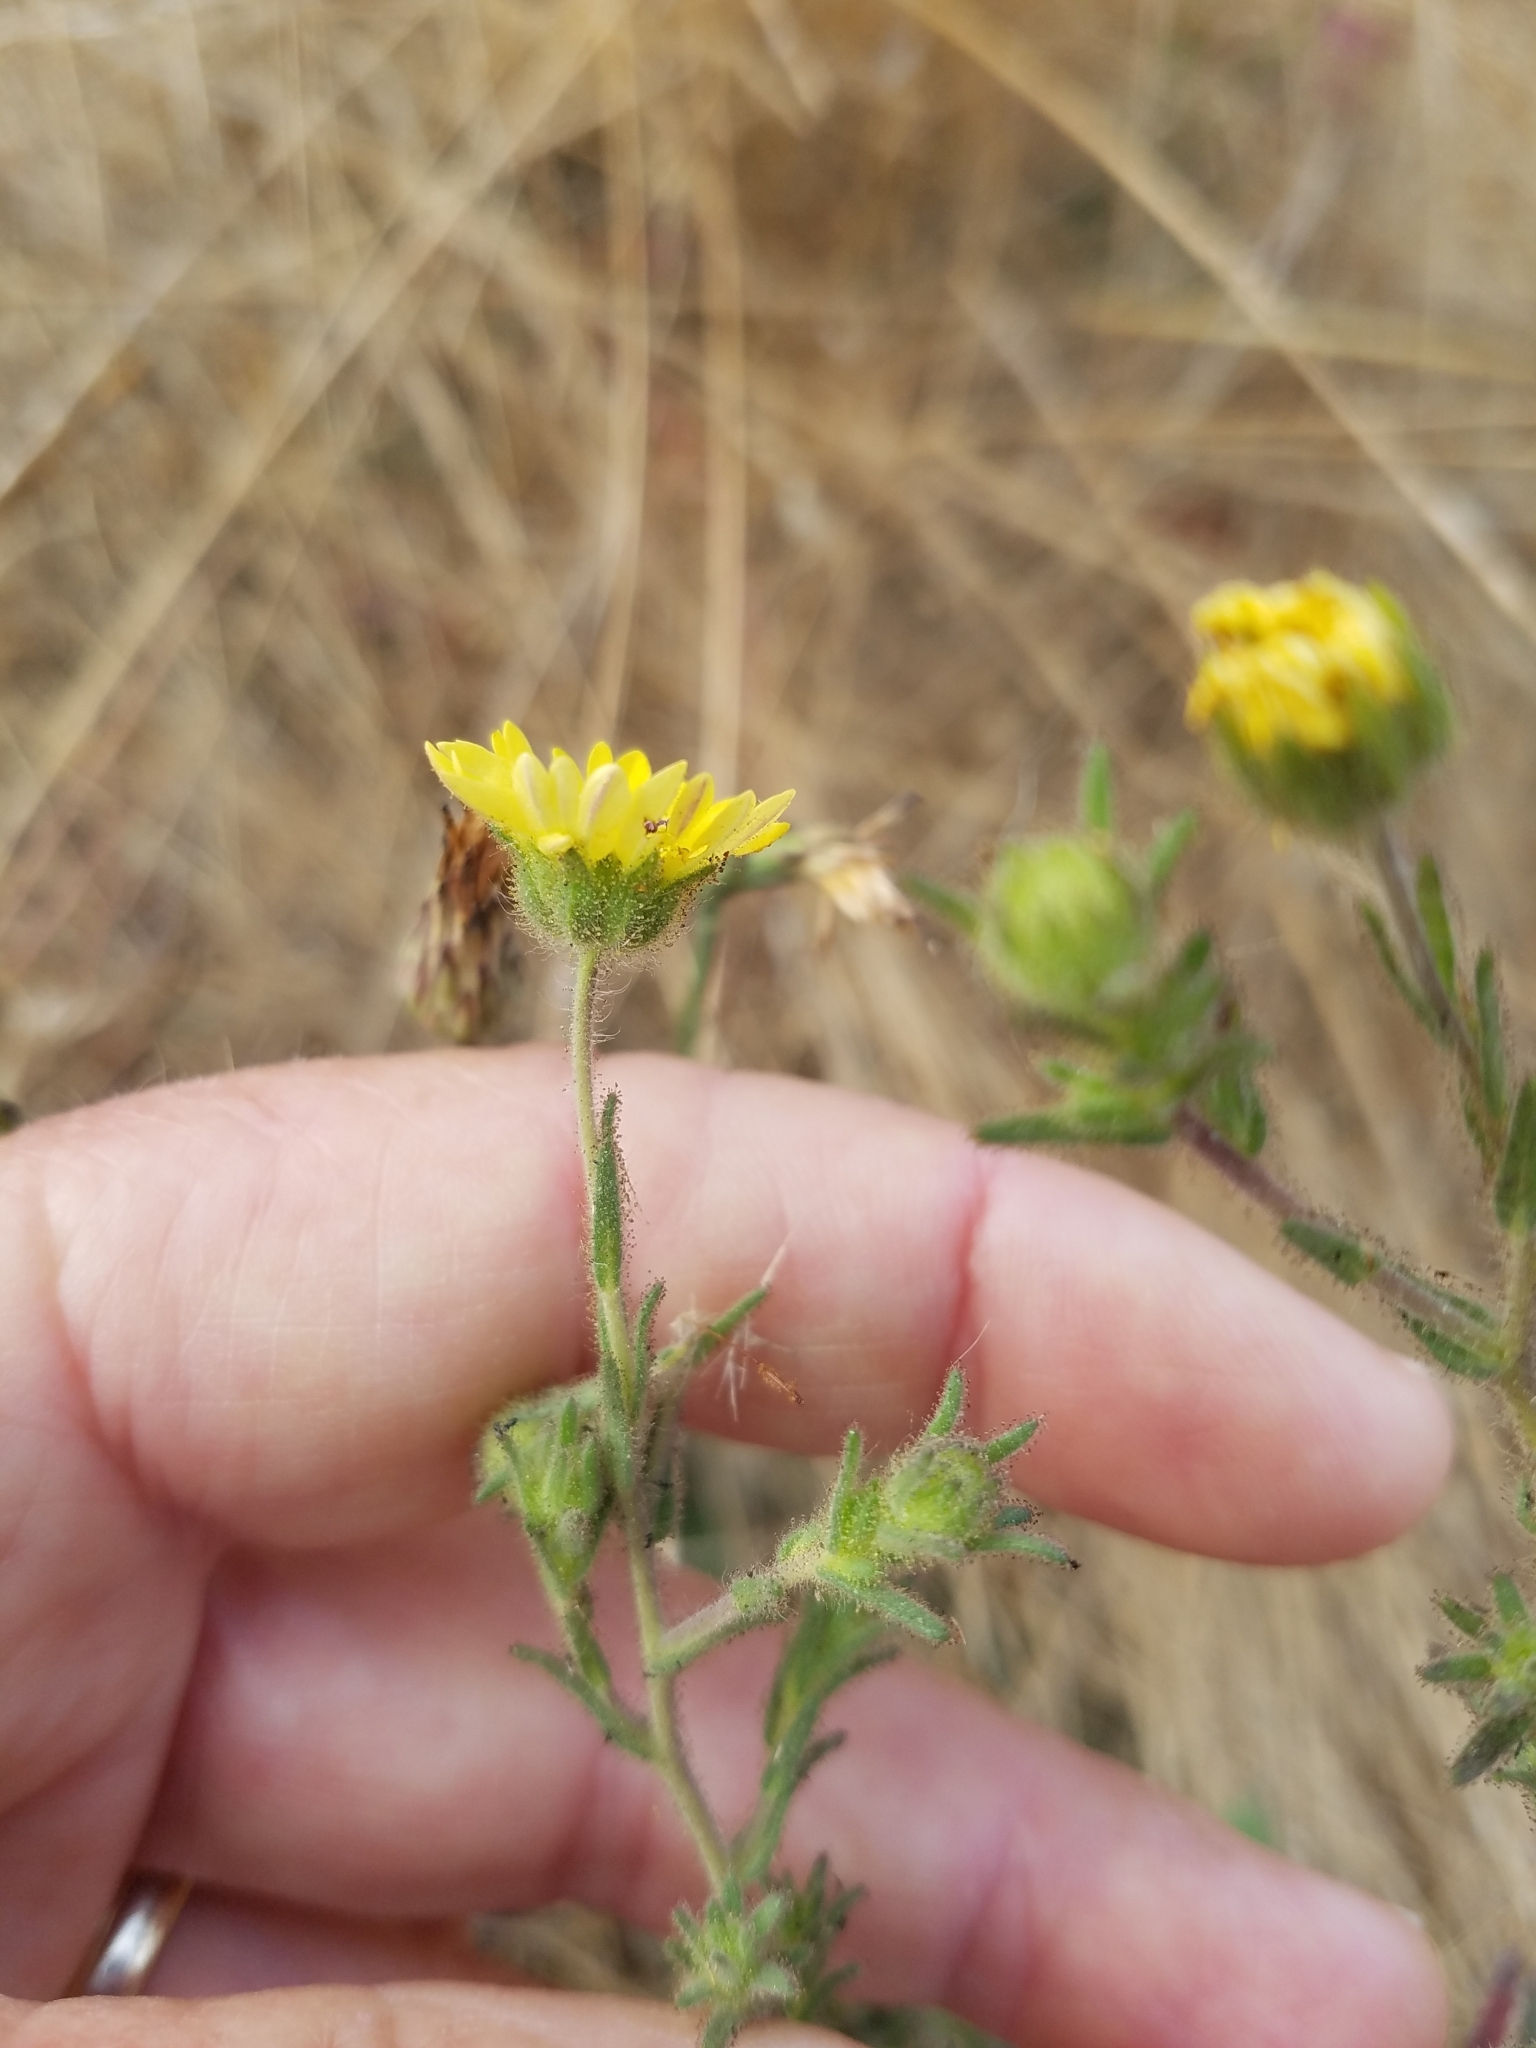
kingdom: Plantae
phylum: Tracheophyta
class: Magnoliopsida
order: Asterales
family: Asteraceae
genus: Hemizonia
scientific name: Hemizonia congesta
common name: Hayfield tarweed
